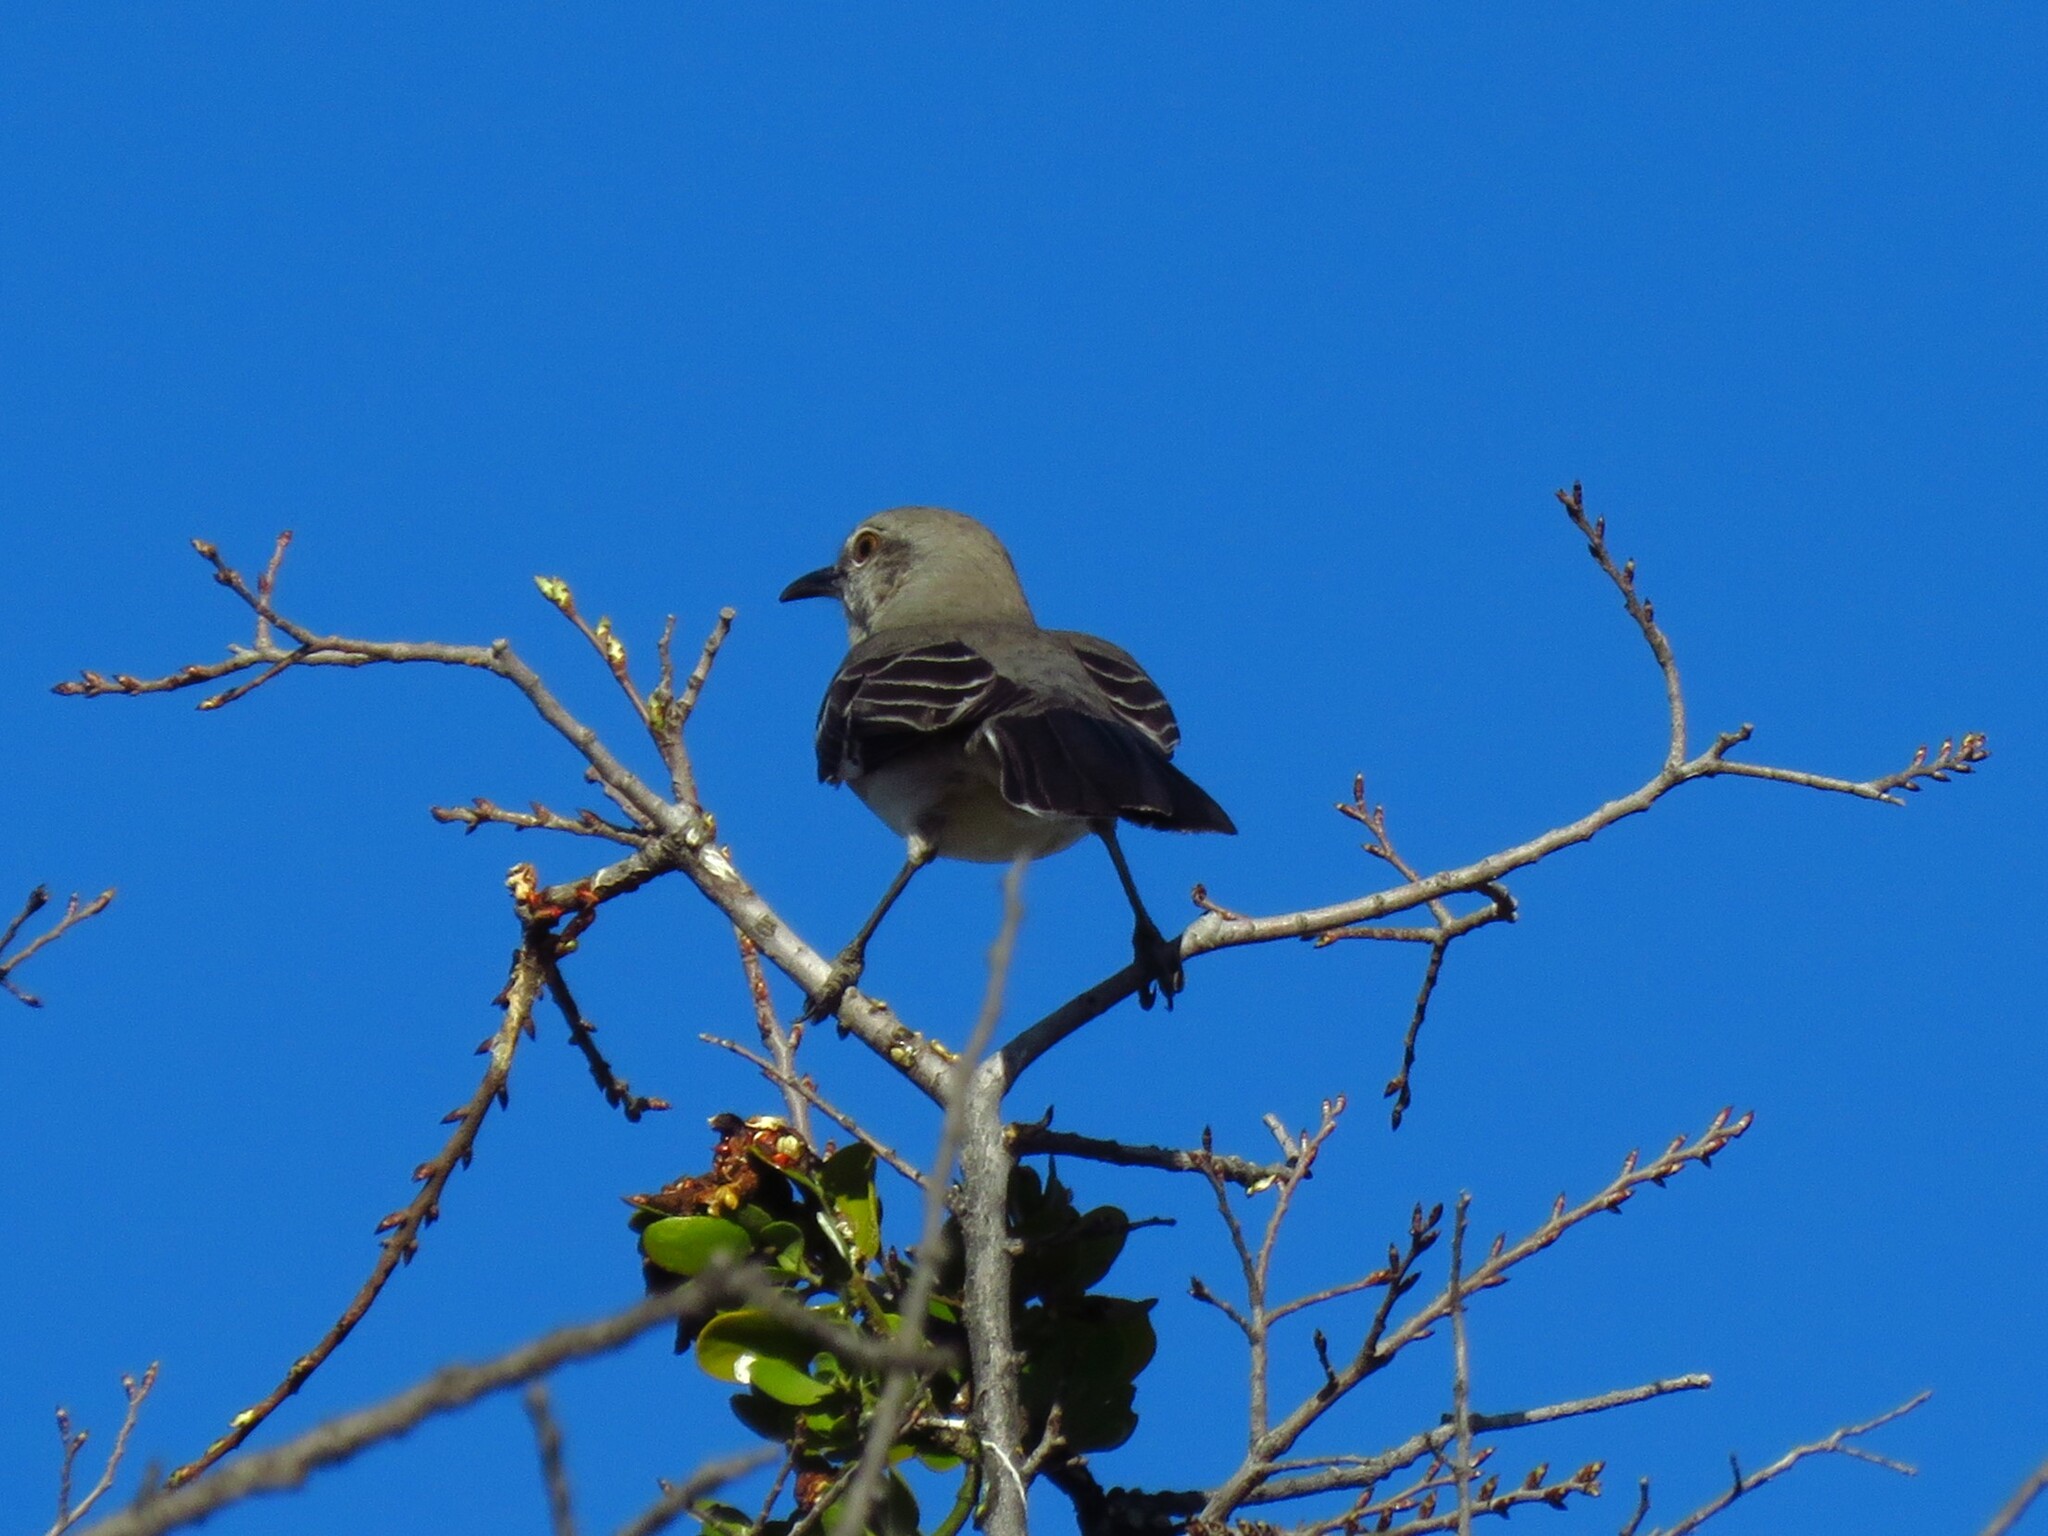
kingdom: Animalia
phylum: Chordata
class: Aves
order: Passeriformes
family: Mimidae
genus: Mimus
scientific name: Mimus polyglottos
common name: Northern mockingbird
